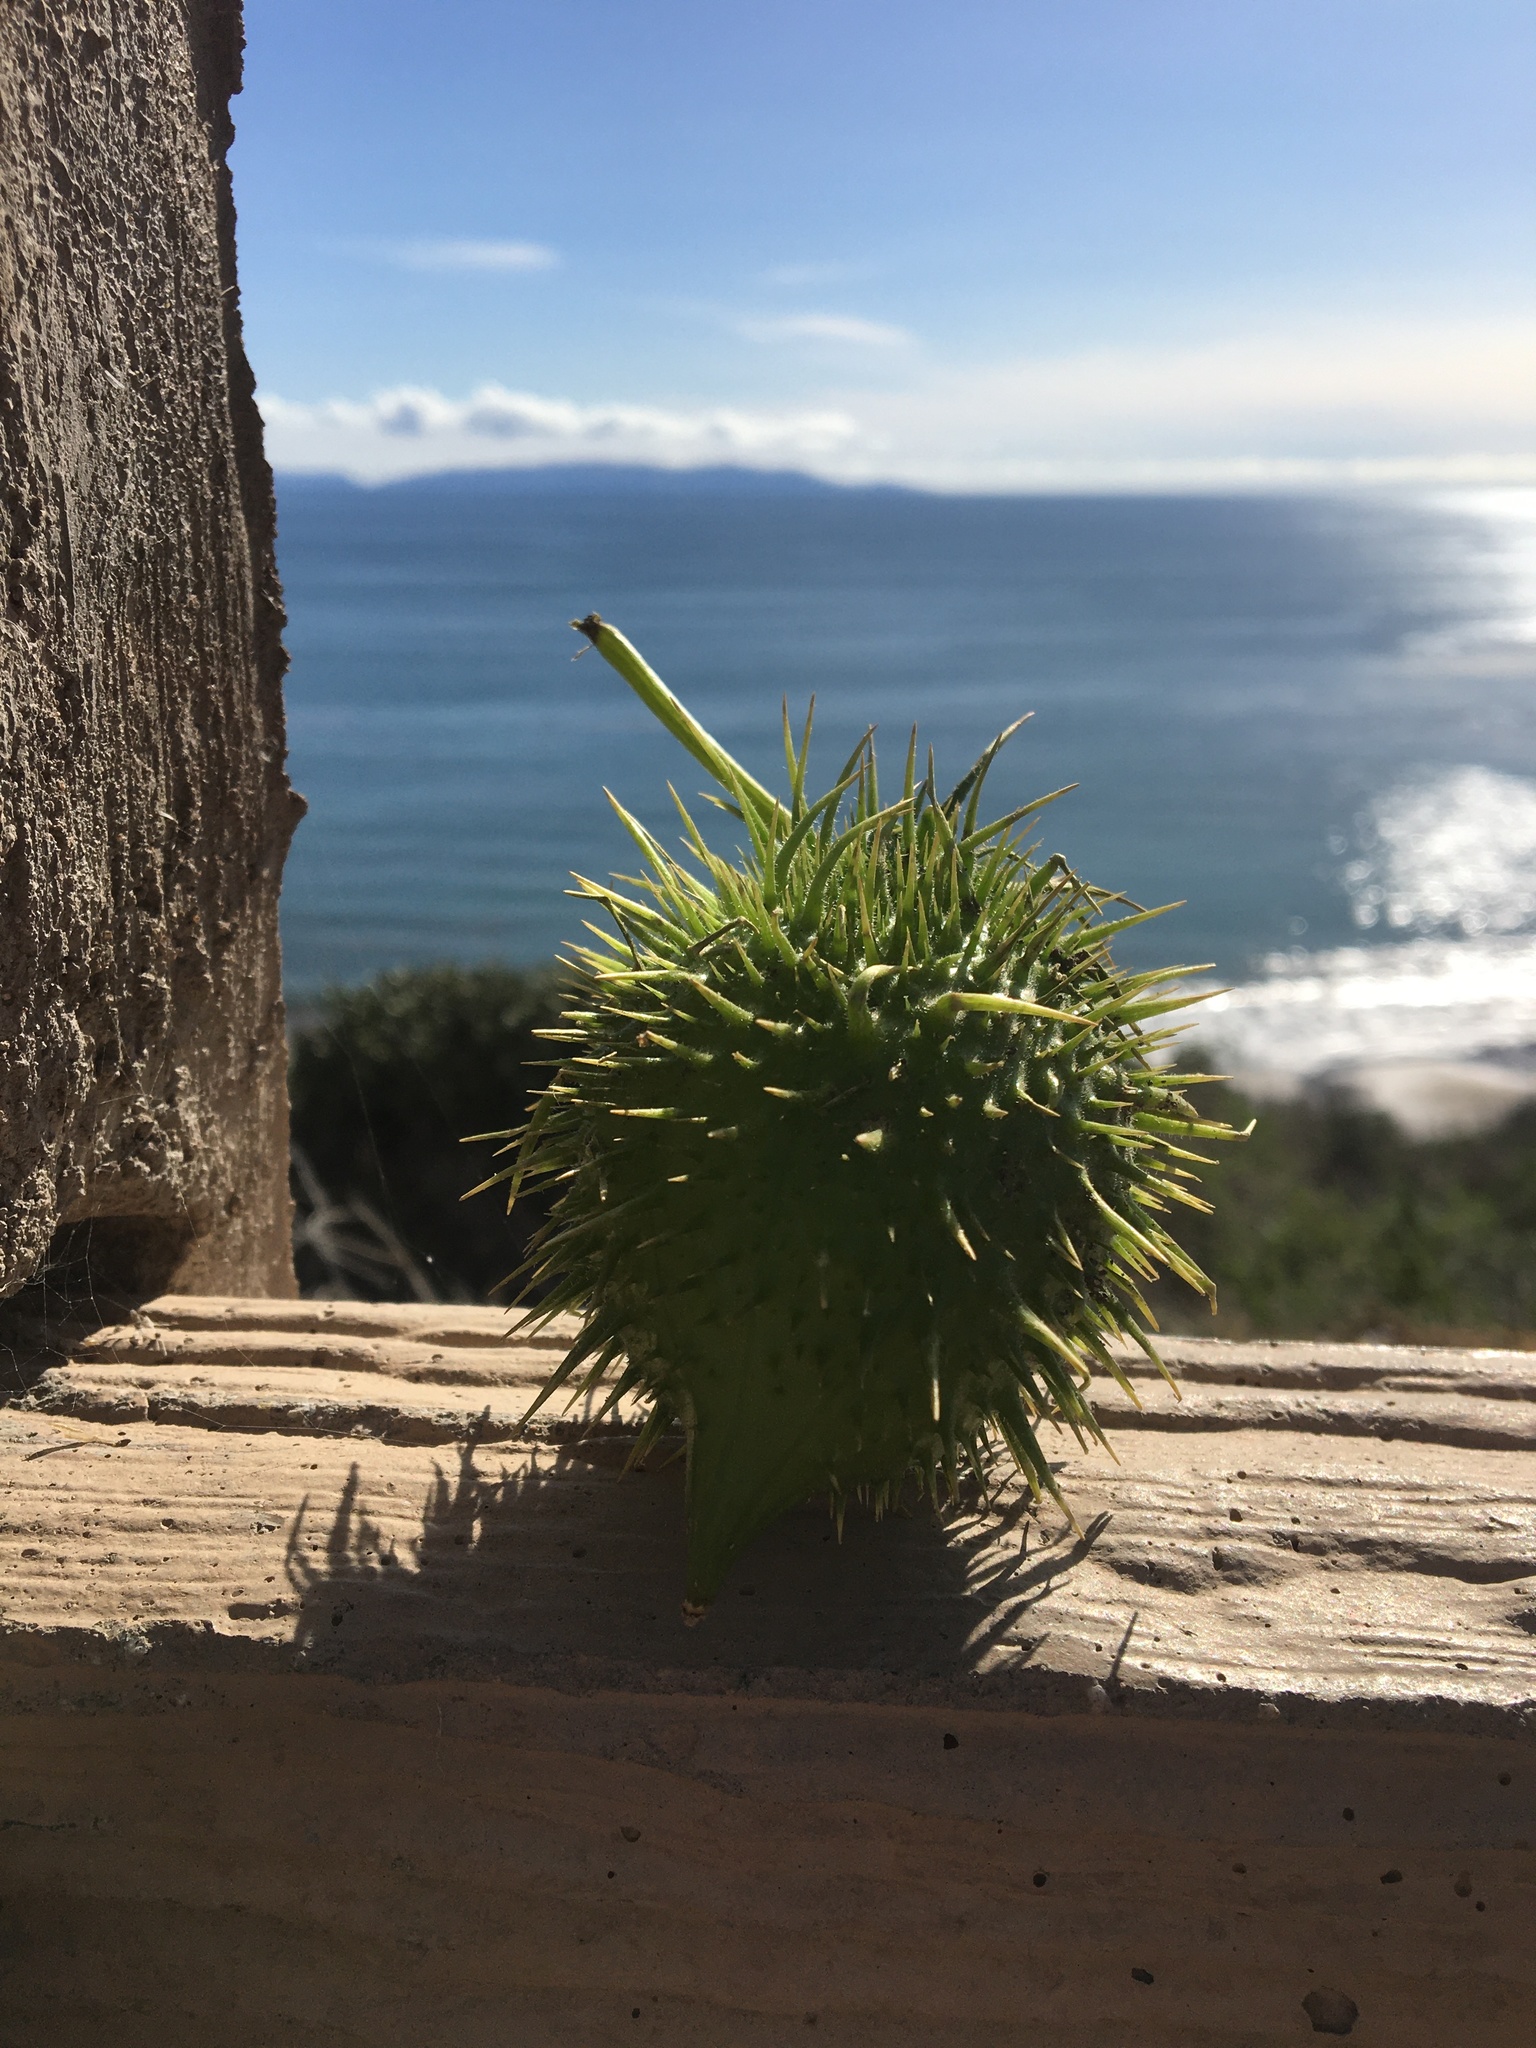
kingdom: Plantae
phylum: Tracheophyta
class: Magnoliopsida
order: Cucurbitales
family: Cucurbitaceae
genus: Marah
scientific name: Marah macrocarpa
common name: Cucamonga manroot
